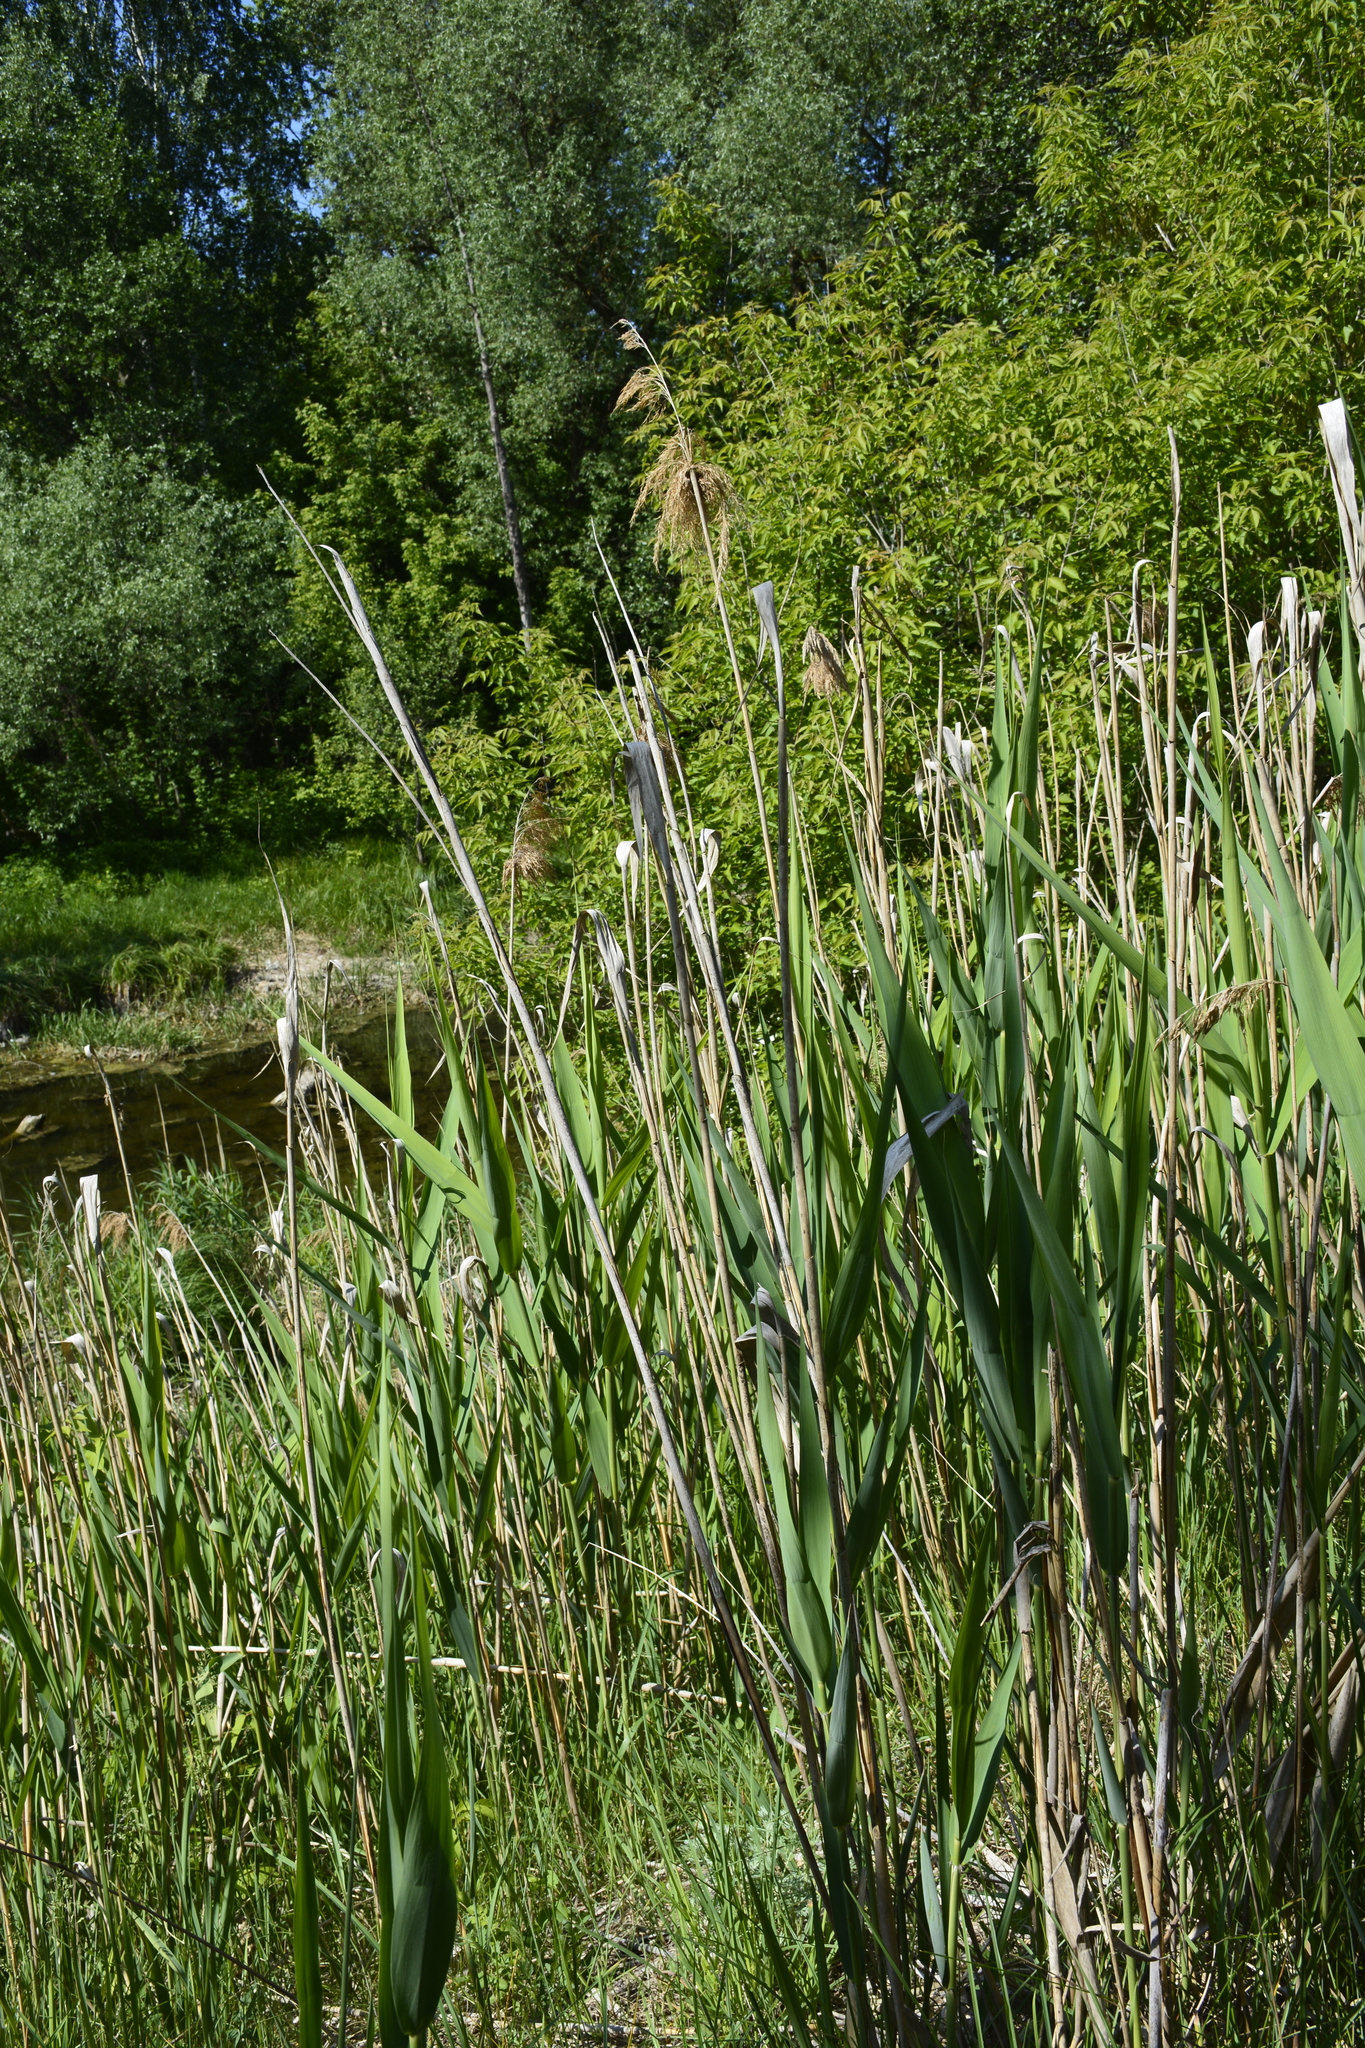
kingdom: Plantae
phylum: Tracheophyta
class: Liliopsida
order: Poales
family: Poaceae
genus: Phragmites
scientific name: Phragmites australis
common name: Common reed
